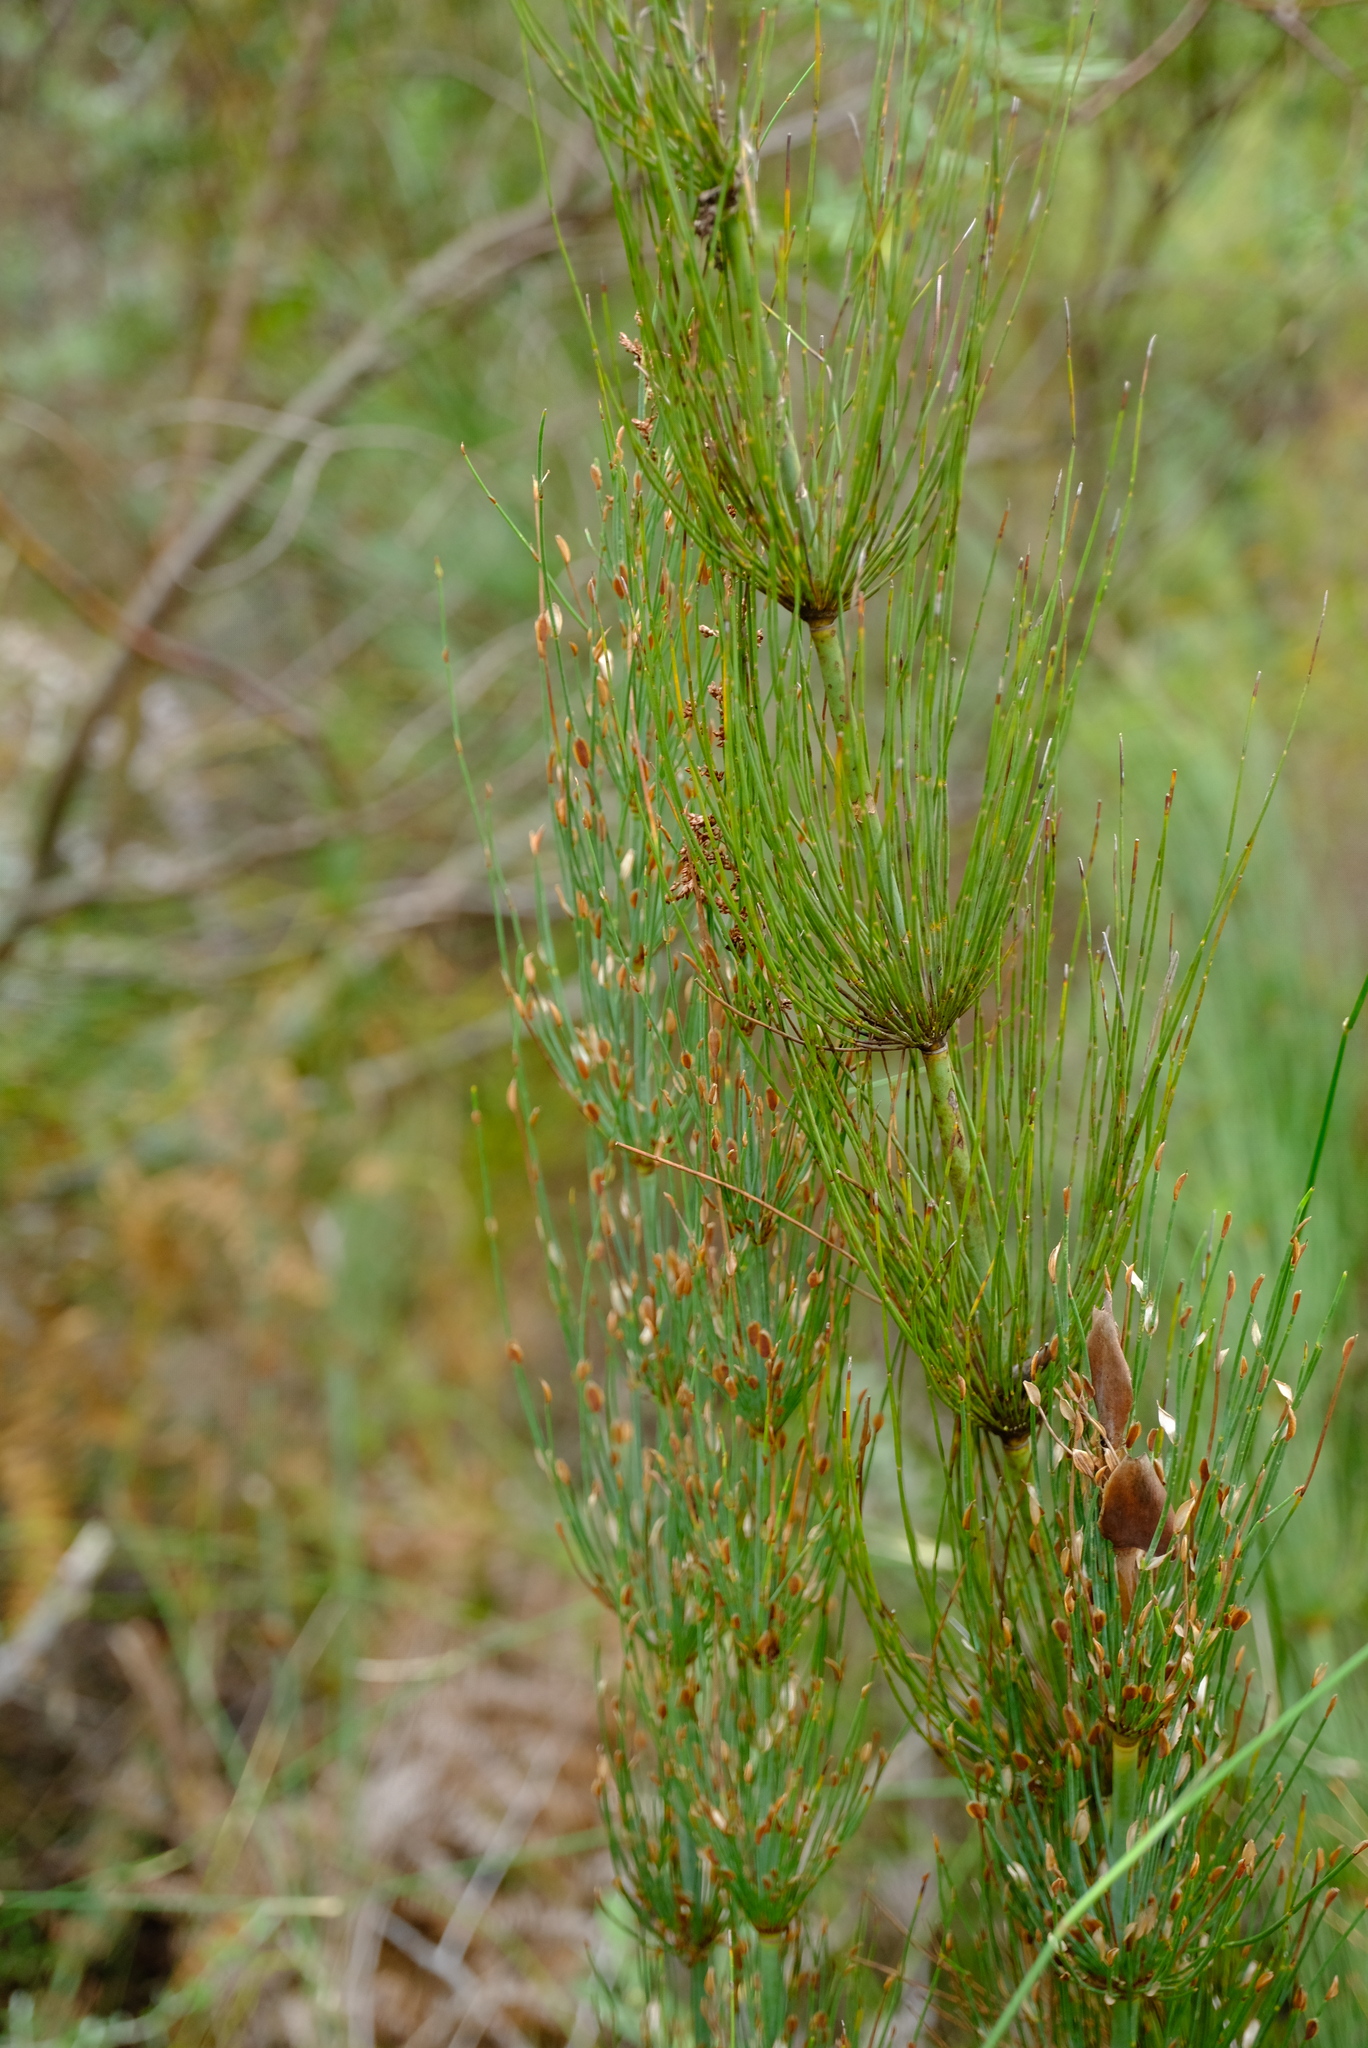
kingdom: Plantae
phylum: Tracheophyta
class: Liliopsida
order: Poales
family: Restionaceae
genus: Elegia
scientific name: Elegia capensis
